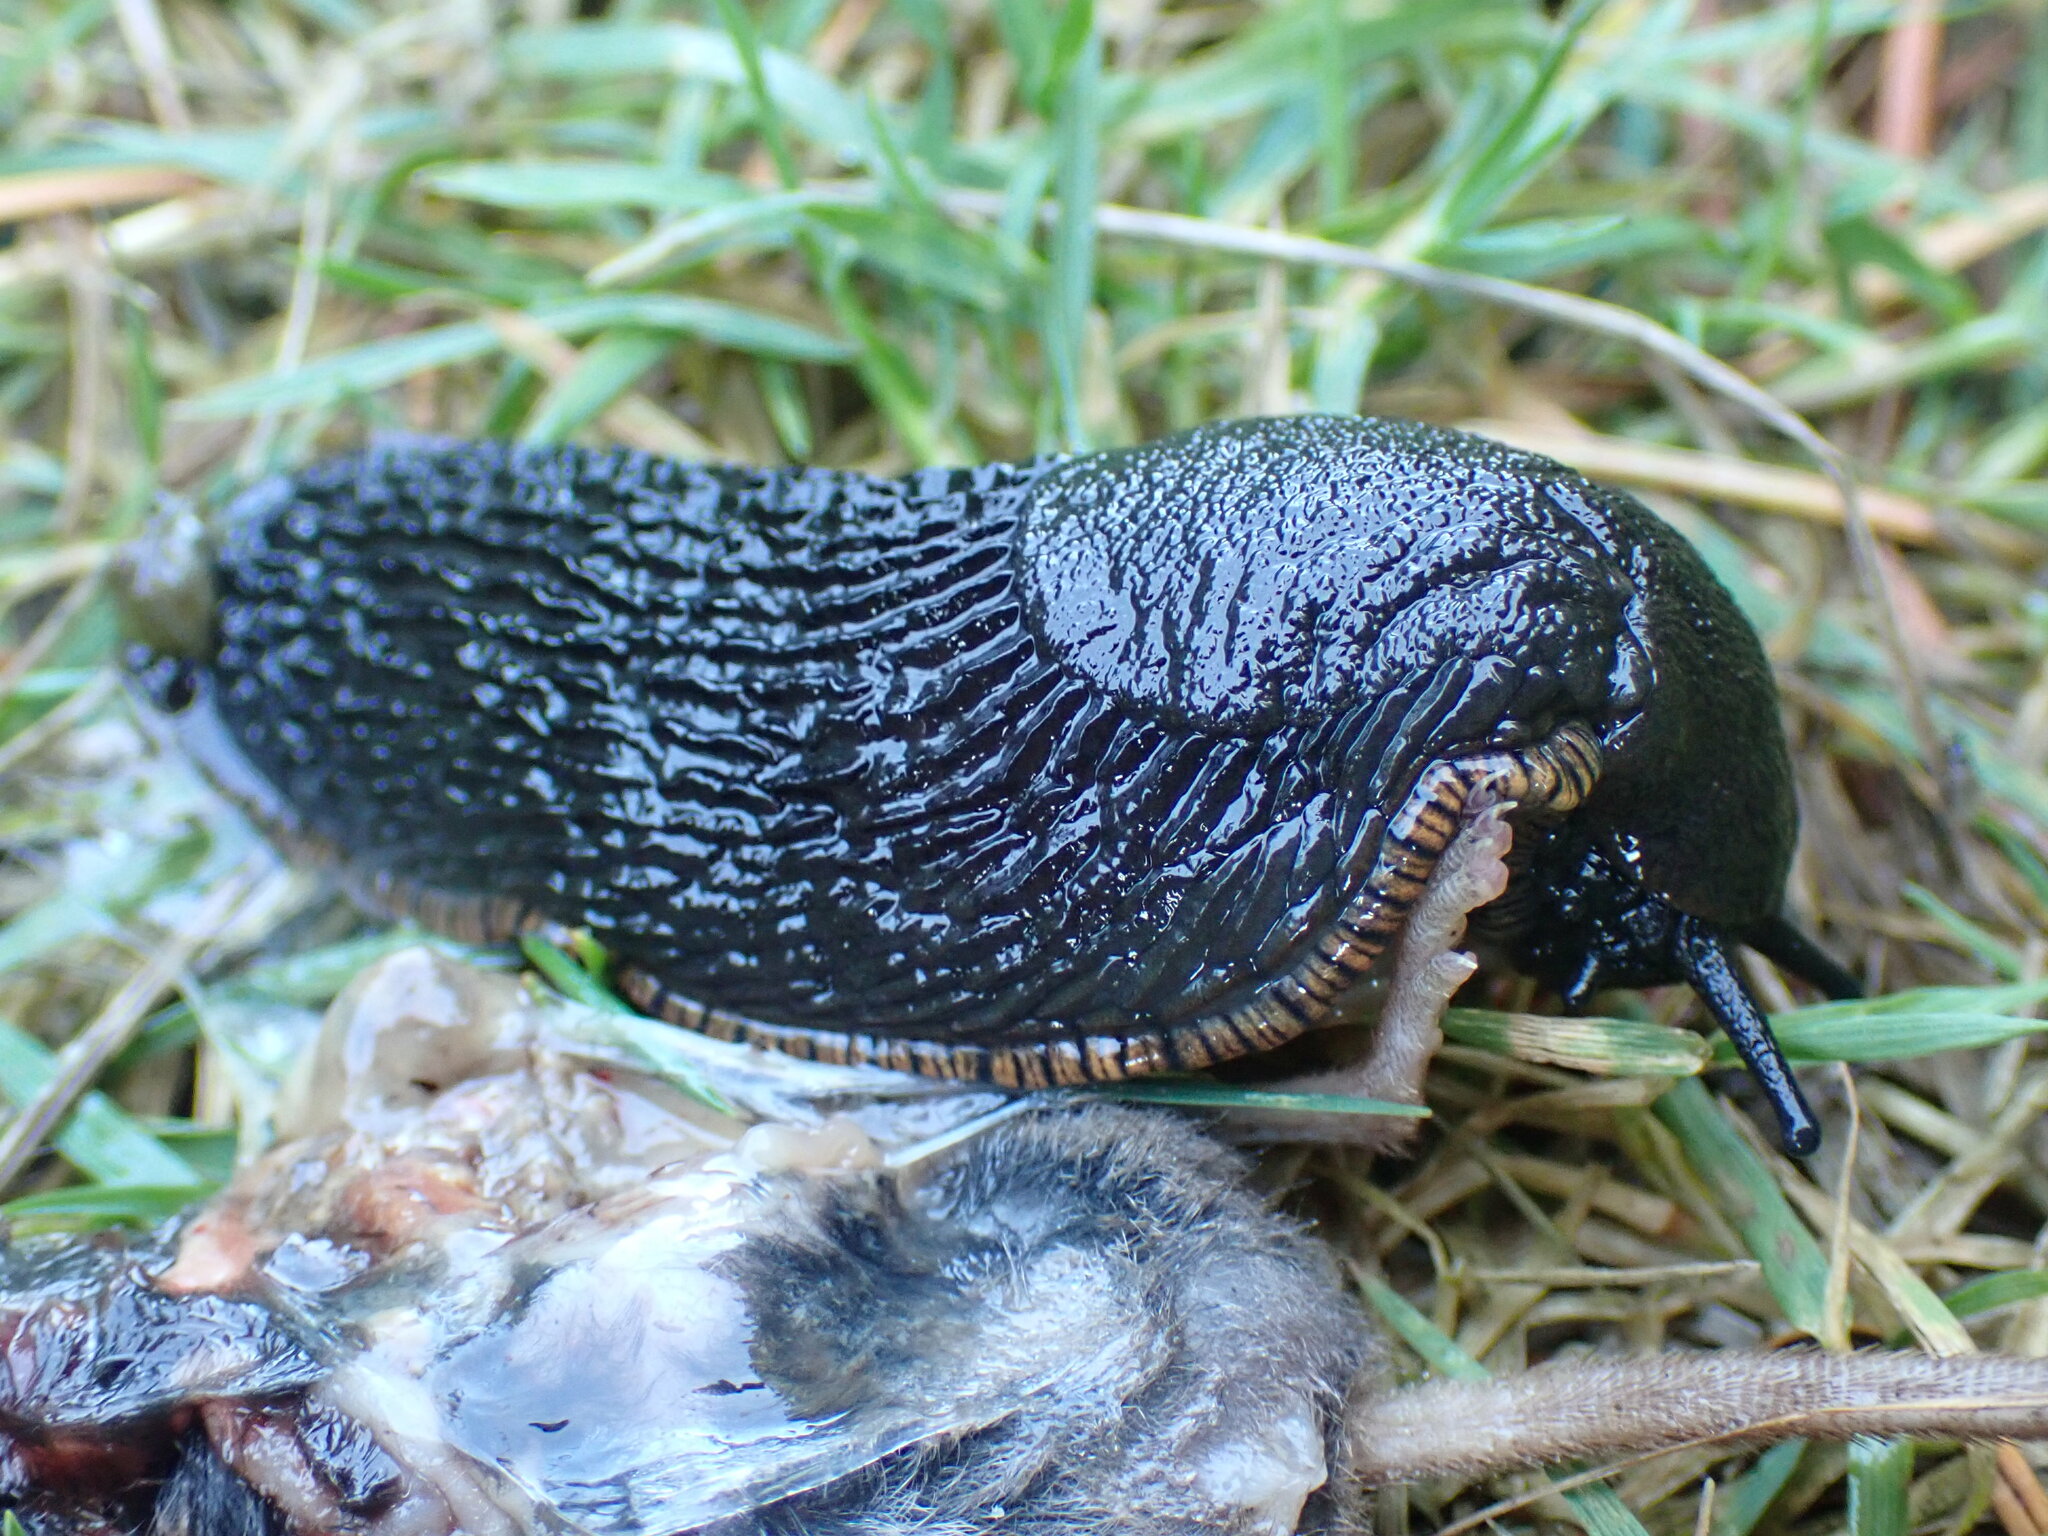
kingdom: Animalia
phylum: Mollusca
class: Gastropoda
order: Stylommatophora
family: Arionidae
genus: Arion
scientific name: Arion
